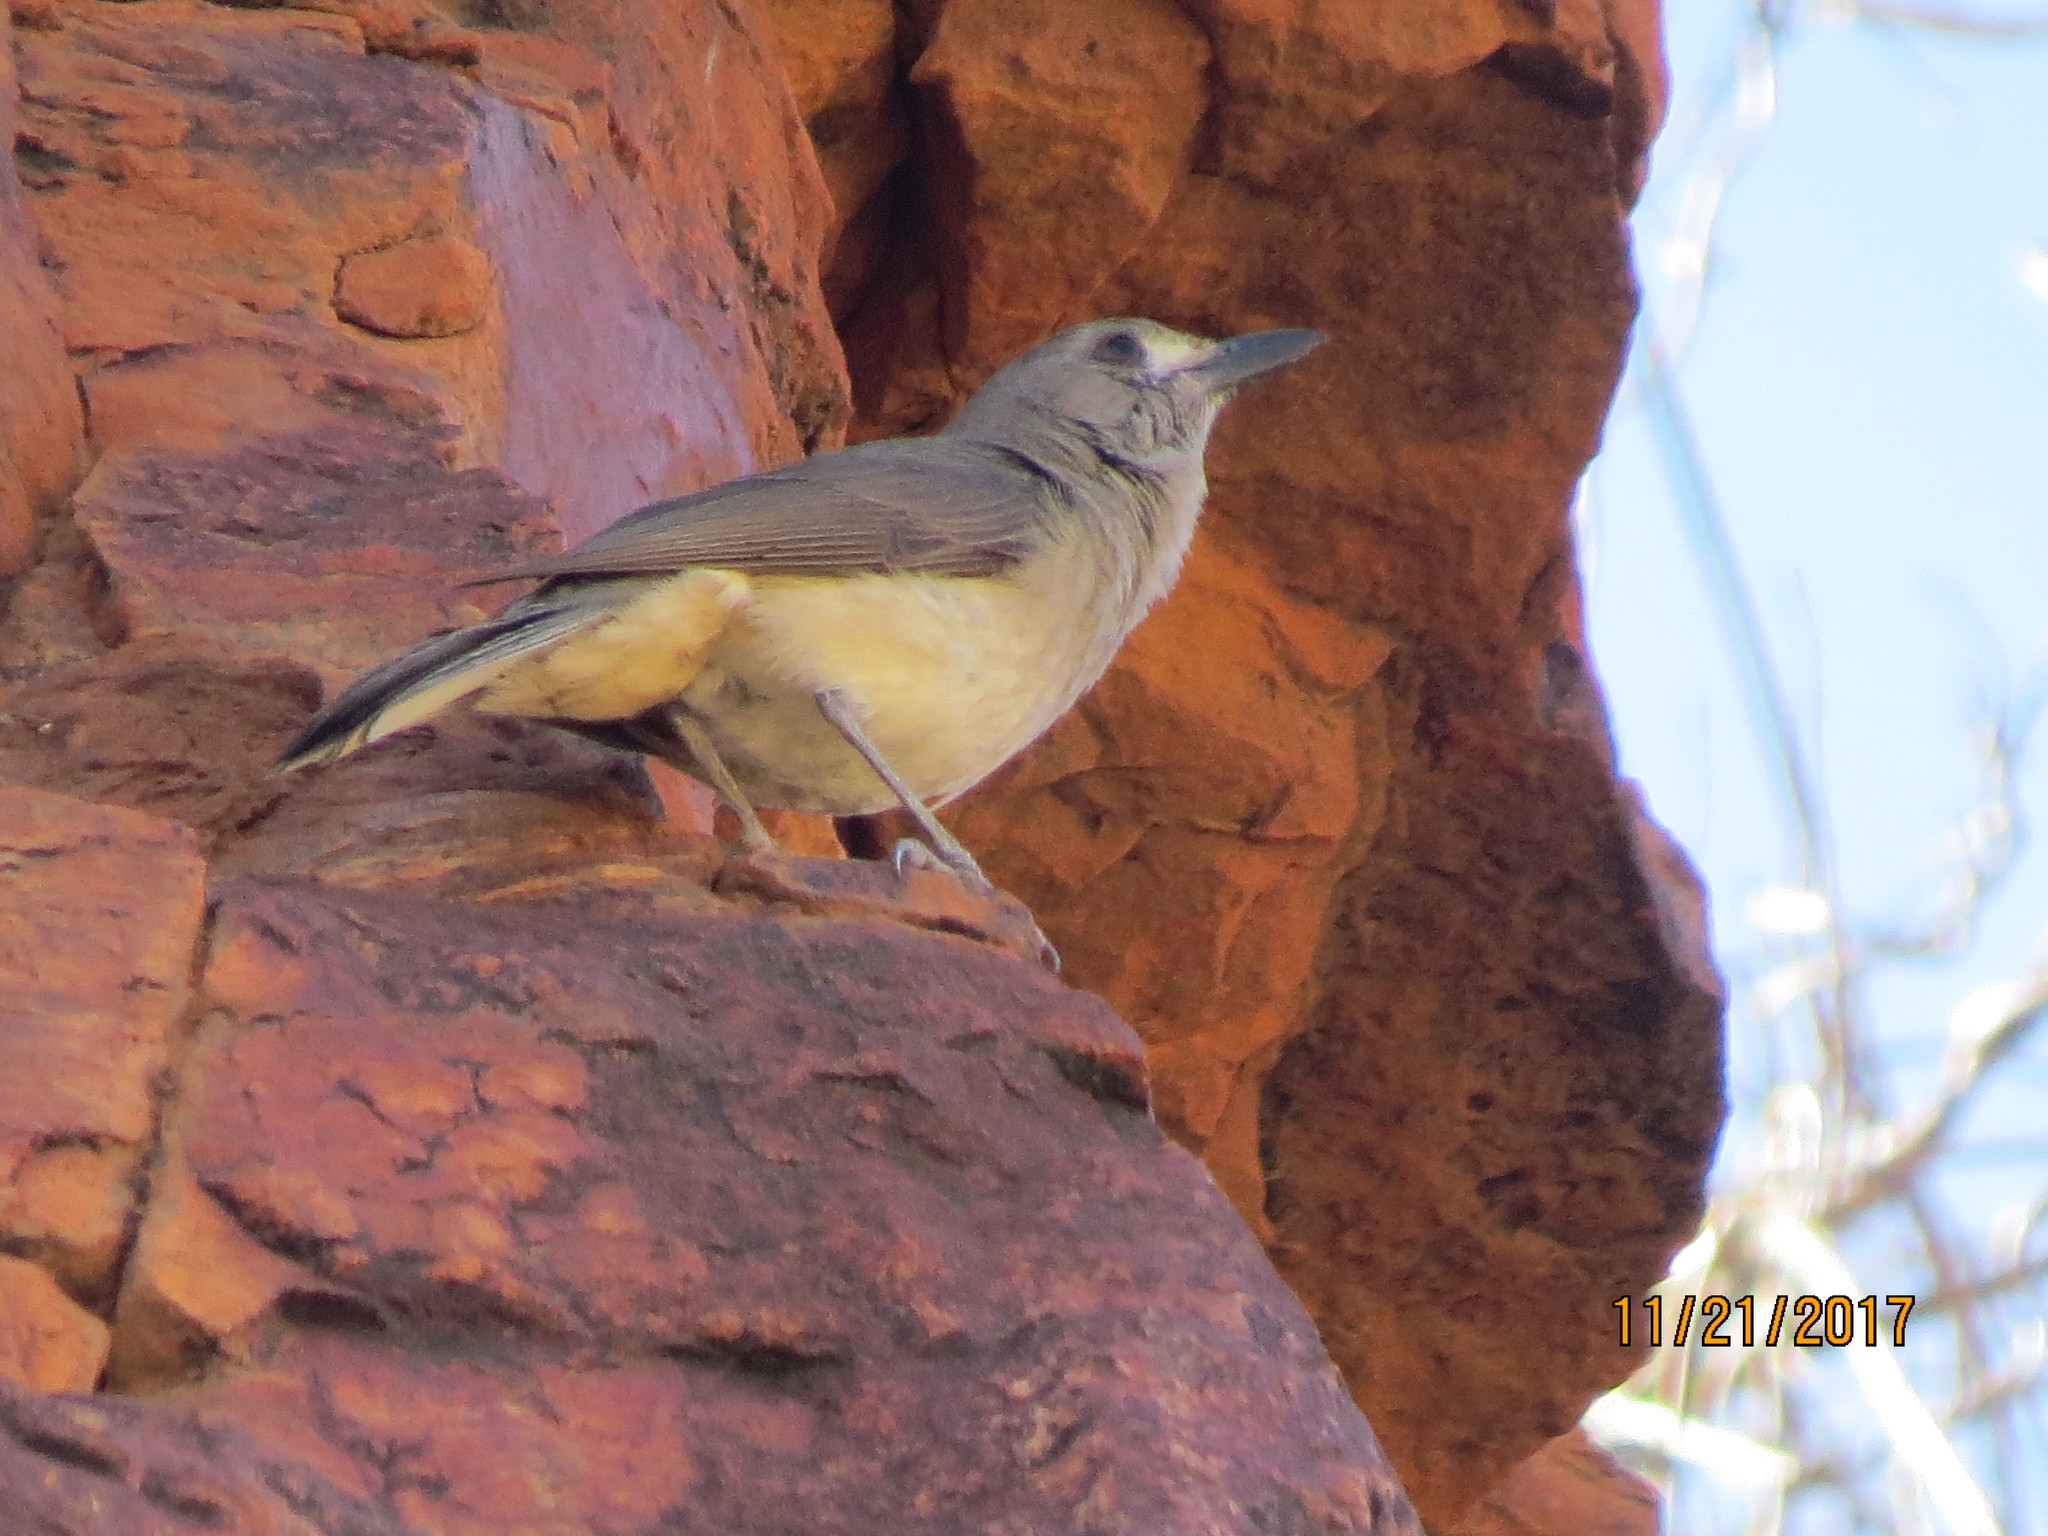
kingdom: Animalia
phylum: Chordata
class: Aves
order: Passeriformes
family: Pachycephalidae
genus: Colluricincla
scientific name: Colluricincla harmonica
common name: Grey shrikethrush
